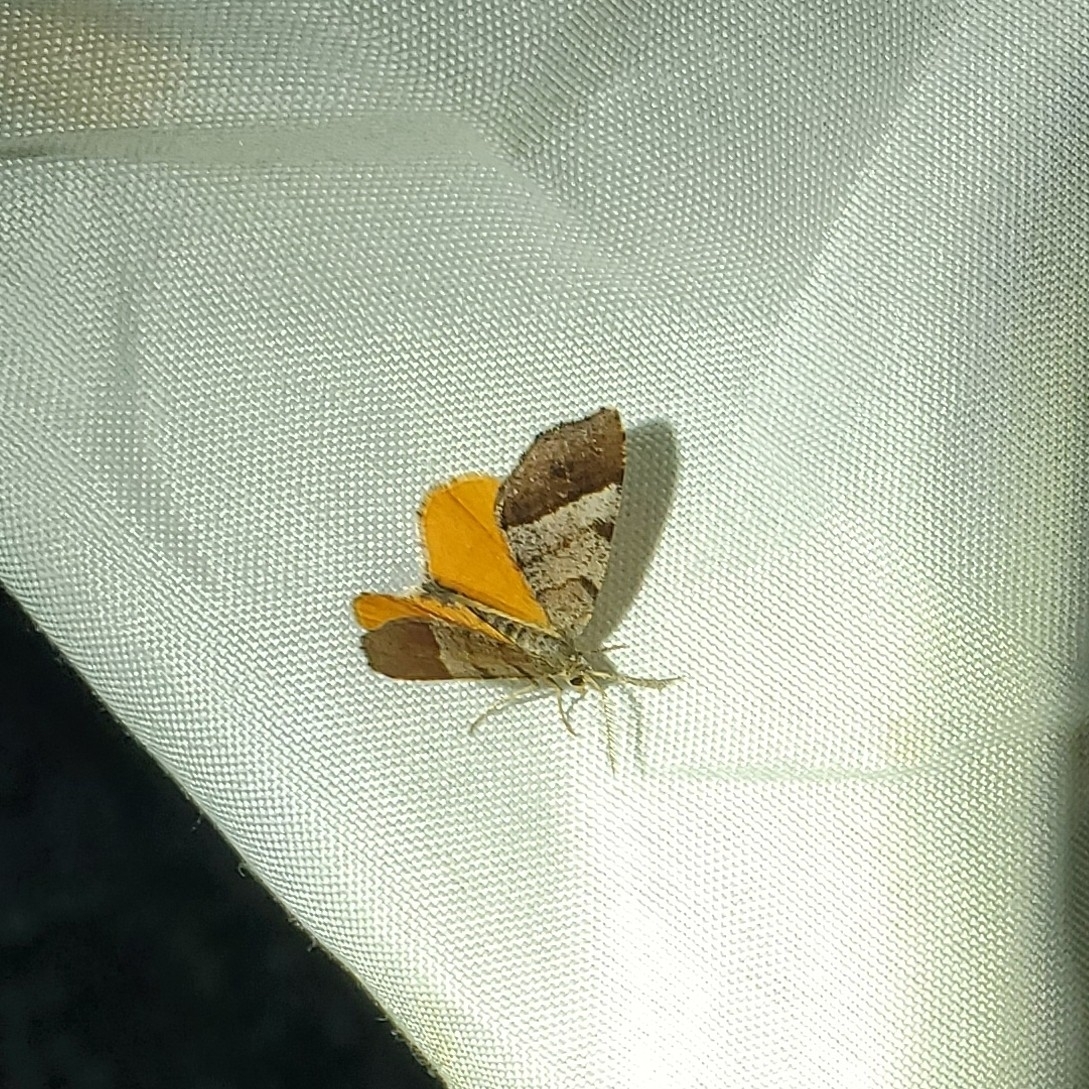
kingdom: Animalia
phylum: Arthropoda
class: Insecta
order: Lepidoptera
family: Geometridae
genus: Mellilla
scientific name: Mellilla xanthometata
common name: Orange wing moth
